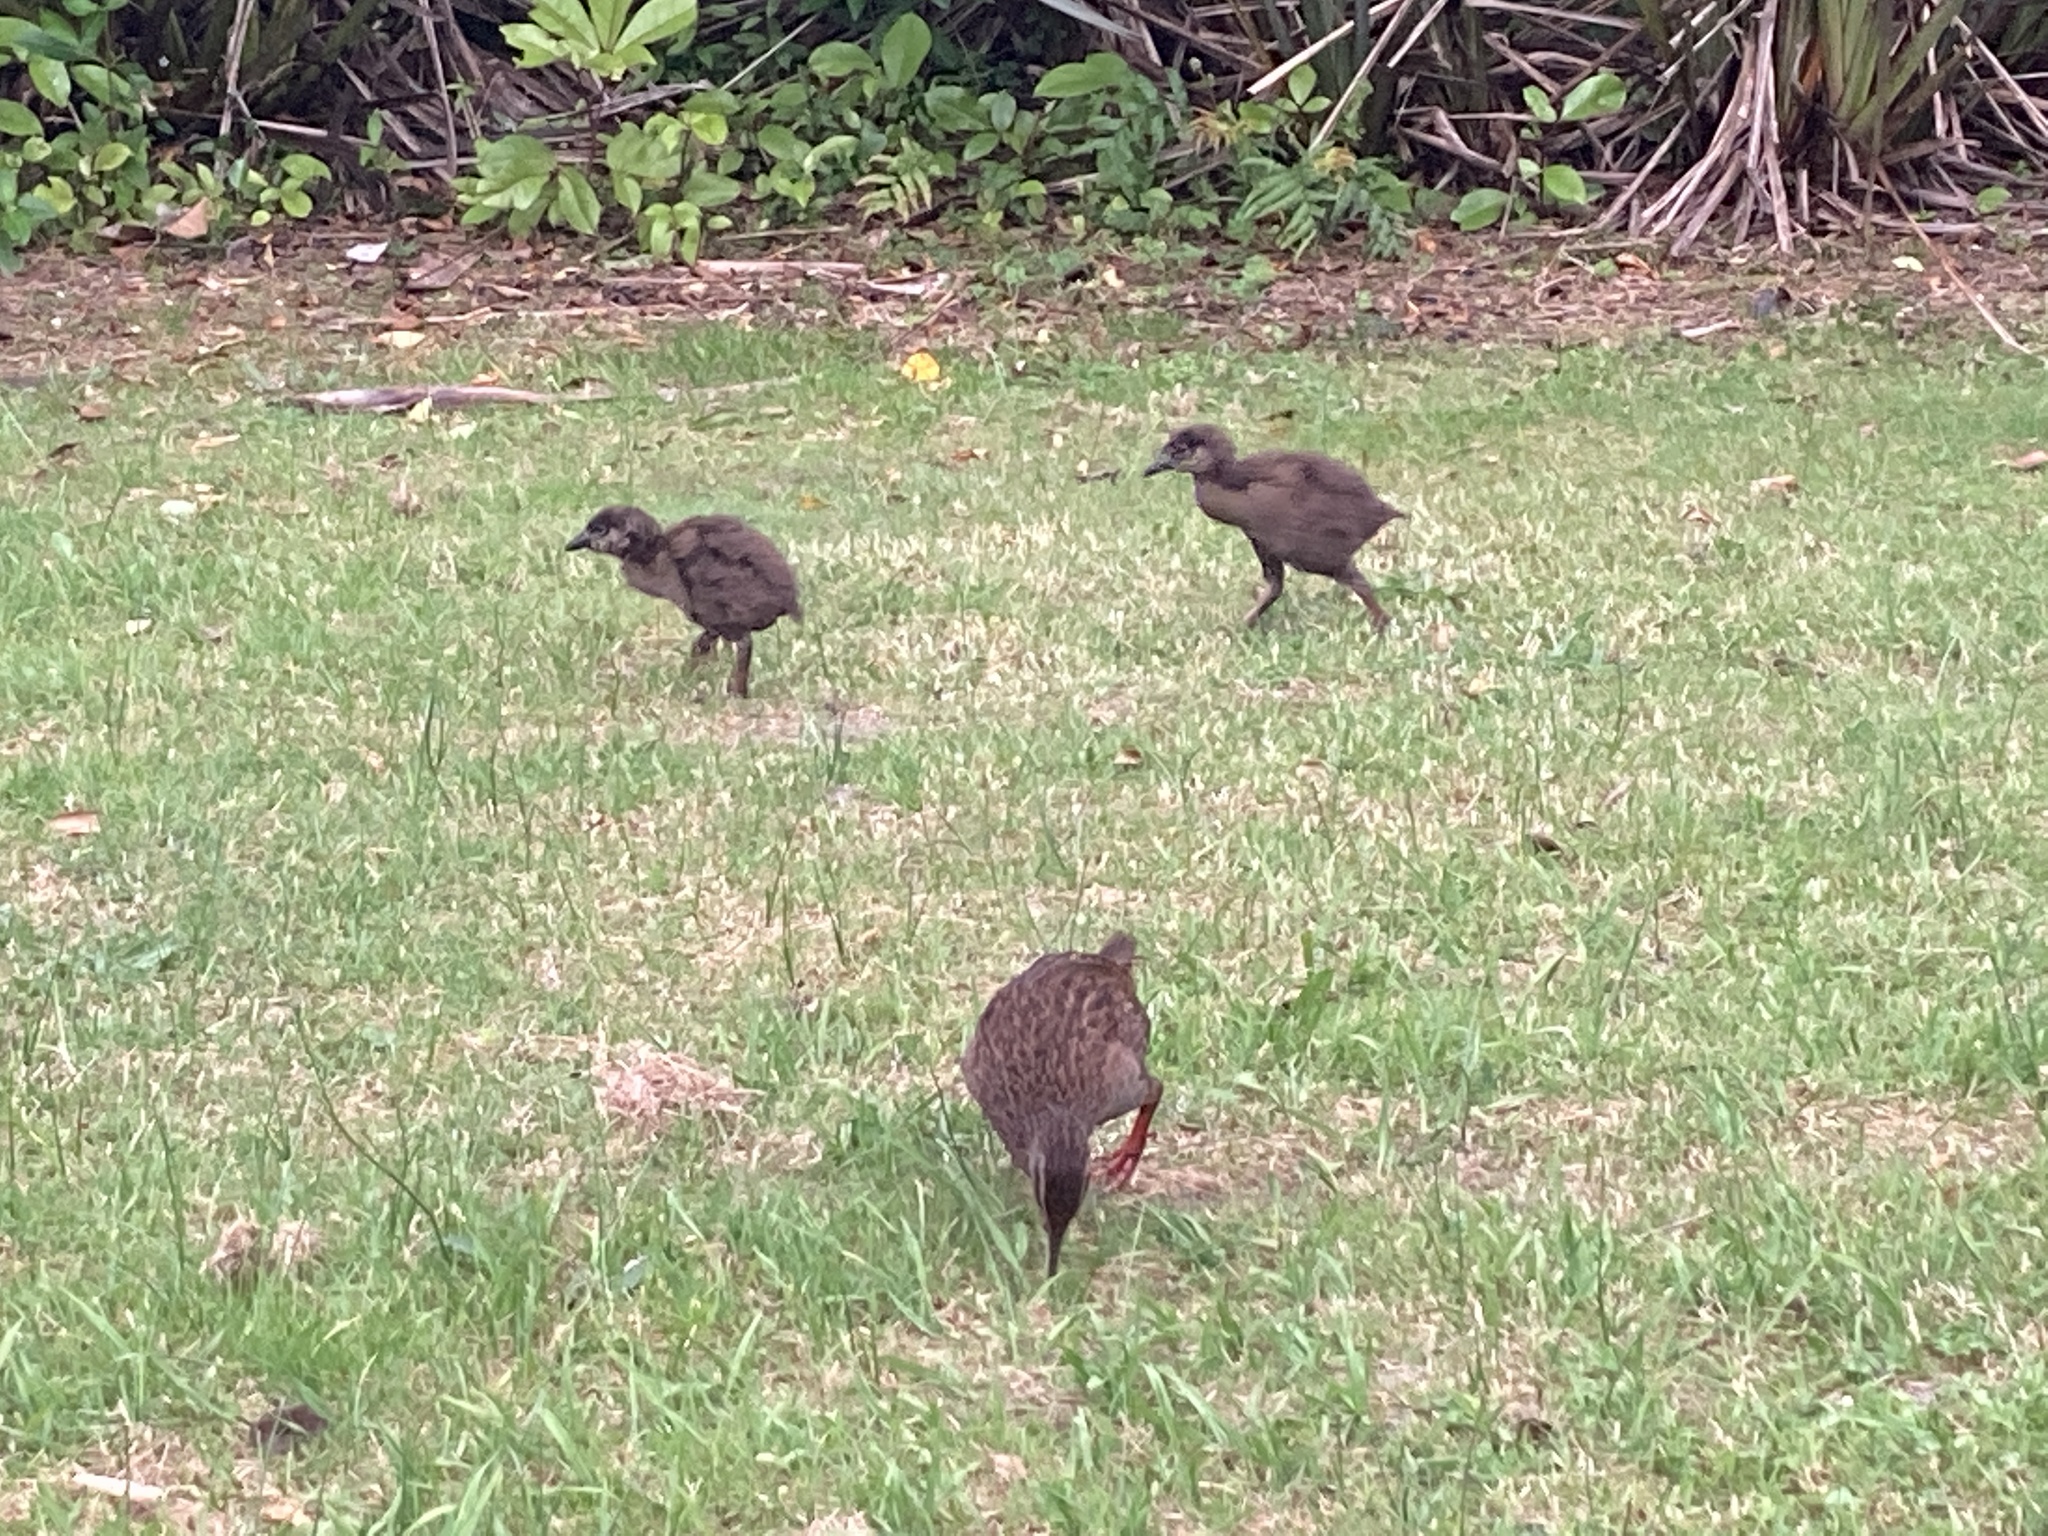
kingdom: Animalia
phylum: Chordata
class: Aves
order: Gruiformes
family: Rallidae
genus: Gallirallus
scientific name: Gallirallus australis
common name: Weka
